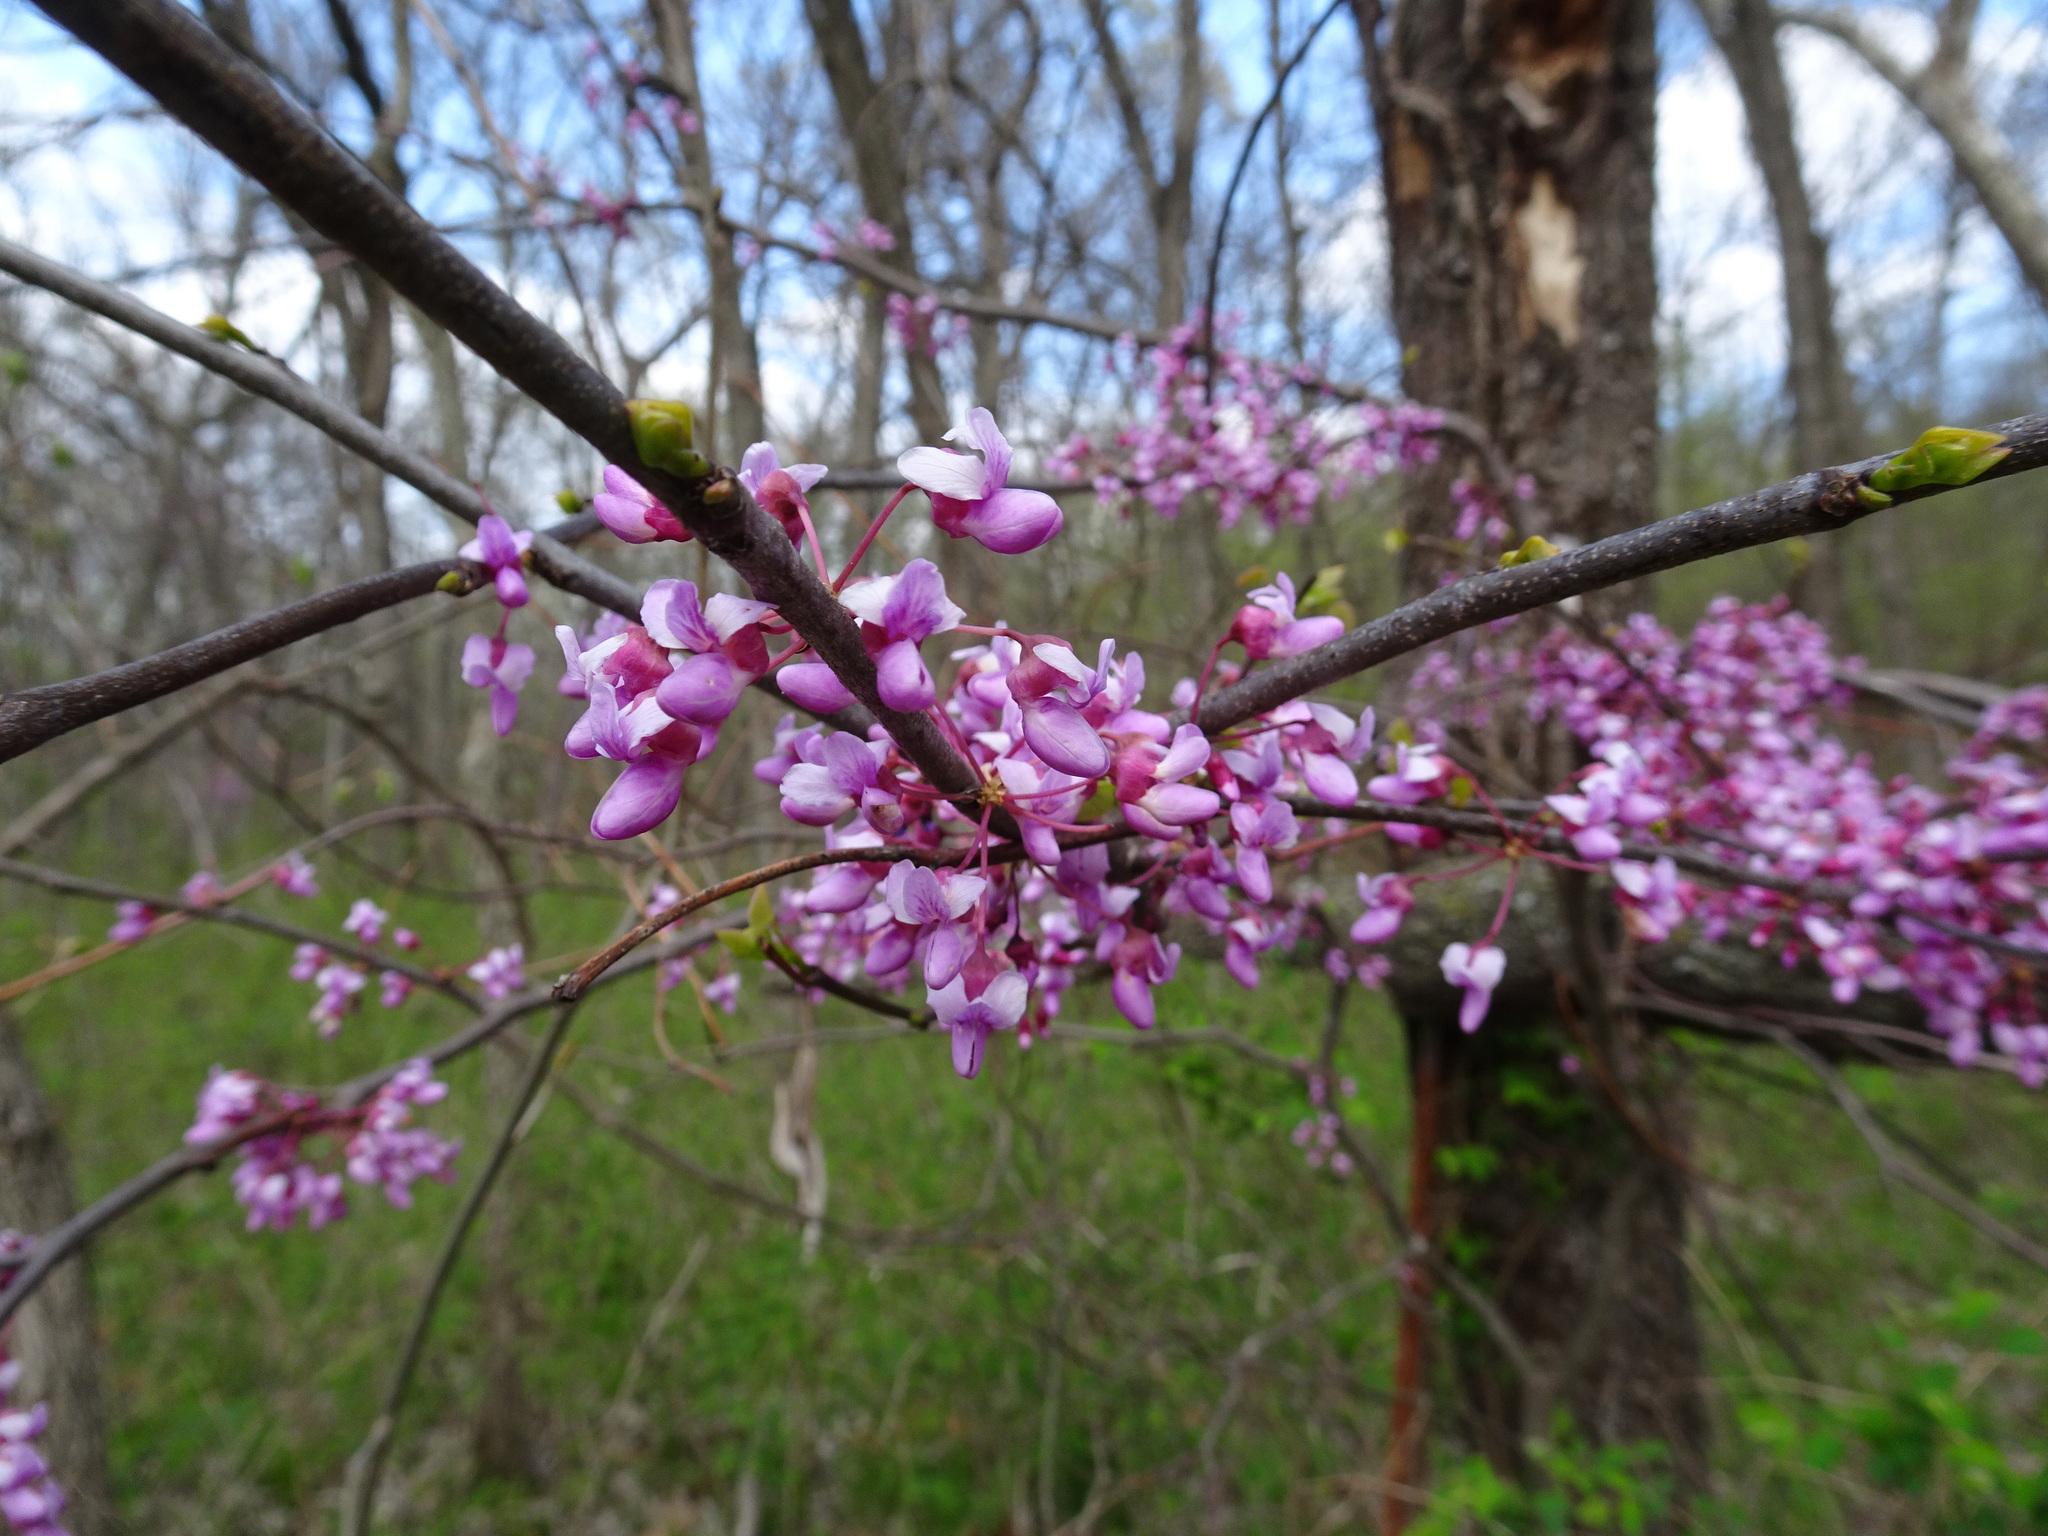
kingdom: Plantae
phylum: Tracheophyta
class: Magnoliopsida
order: Fabales
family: Fabaceae
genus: Cercis
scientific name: Cercis canadensis
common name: Eastern redbud
